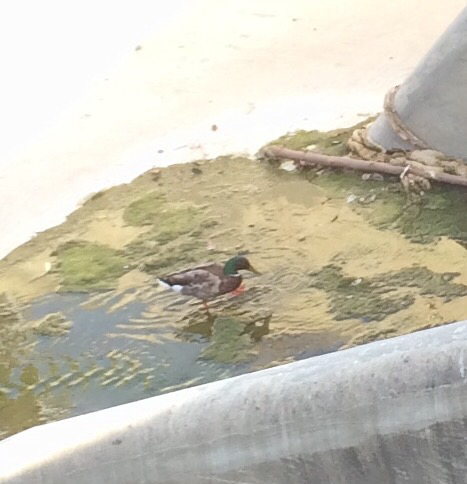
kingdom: Animalia
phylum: Chordata
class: Aves
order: Anseriformes
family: Anatidae
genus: Anas
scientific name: Anas platyrhynchos
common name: Mallard
